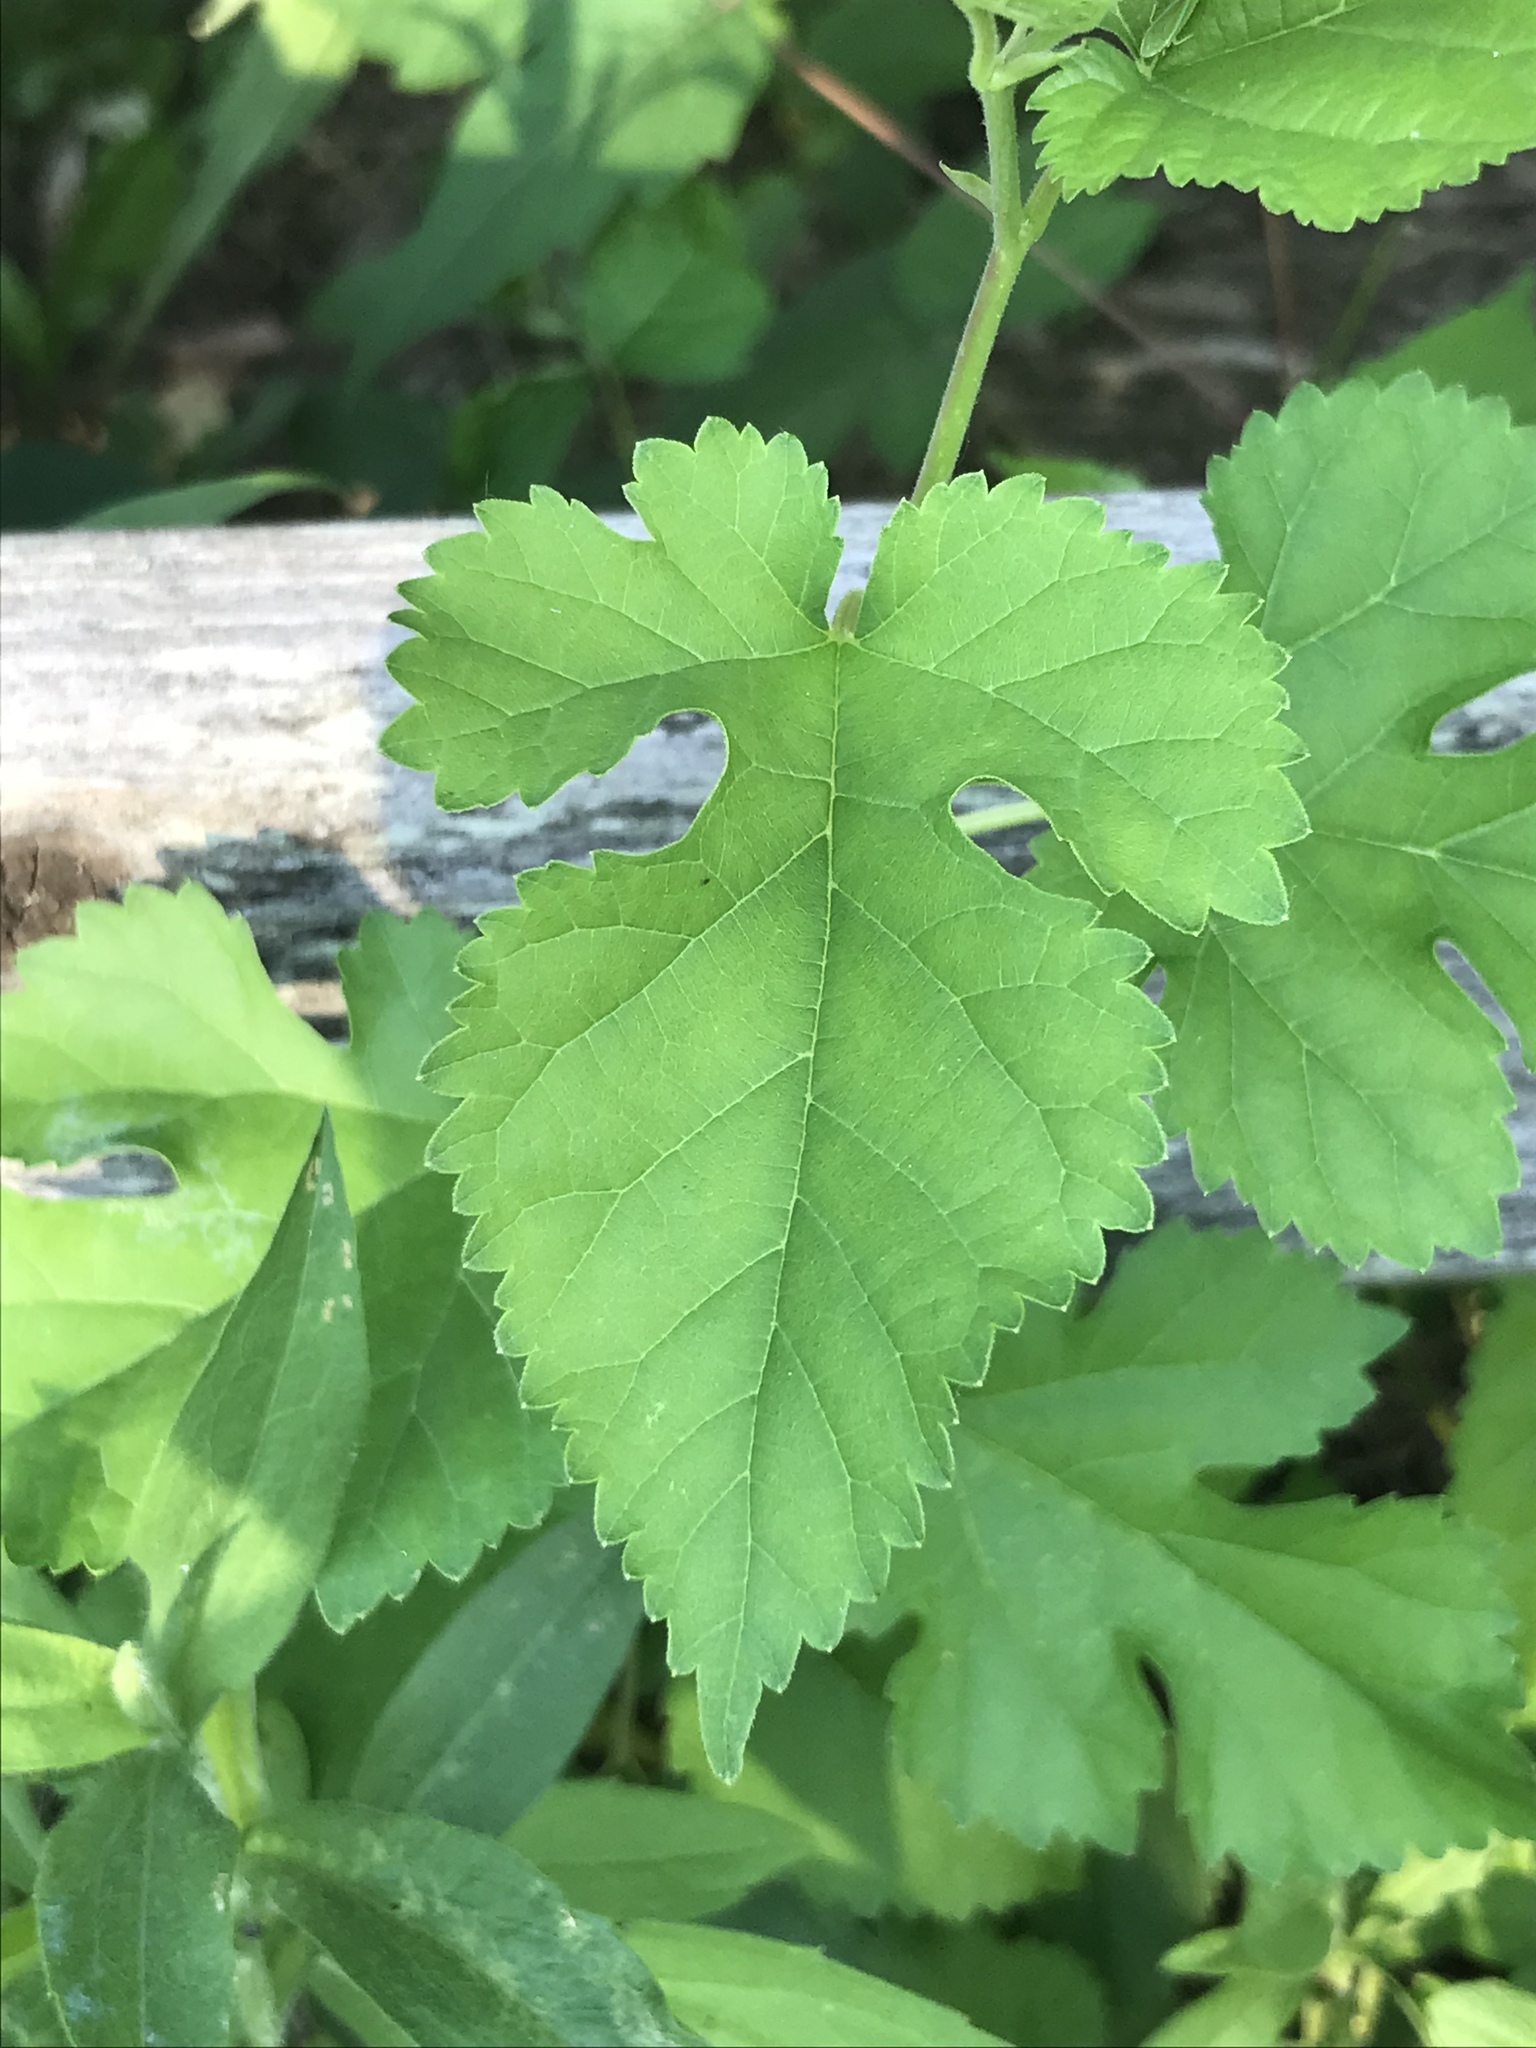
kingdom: Plantae
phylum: Tracheophyta
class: Magnoliopsida
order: Rosales
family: Moraceae
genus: Morus
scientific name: Morus alba
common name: White mulberry
